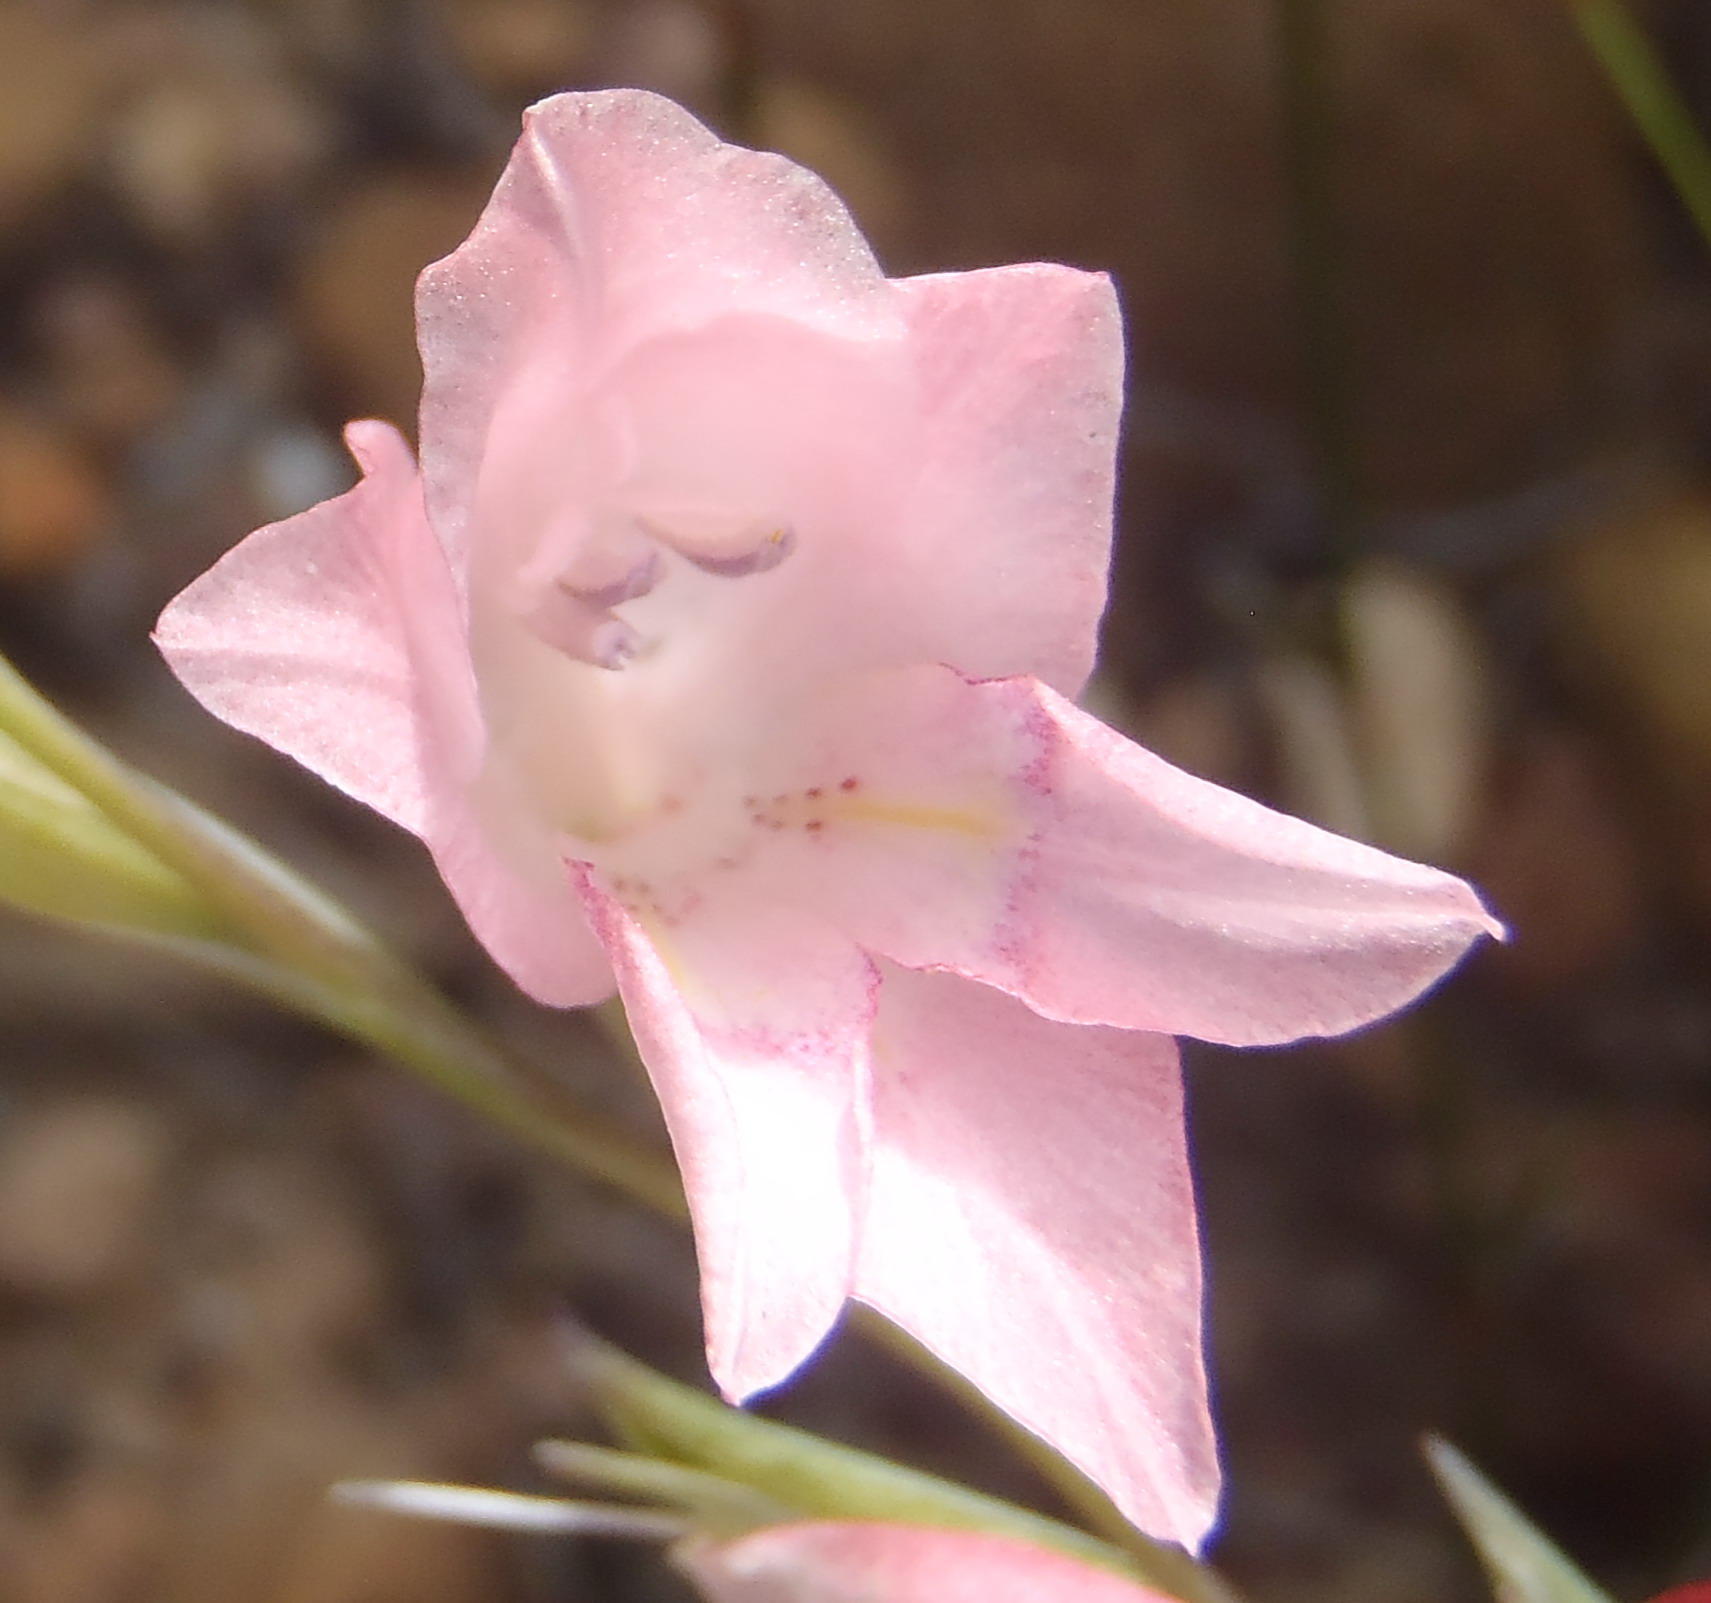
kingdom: Plantae
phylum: Tracheophyta
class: Liliopsida
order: Asparagales
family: Iridaceae
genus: Gladiolus
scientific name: Gladiolus brevifolius
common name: March pypie
